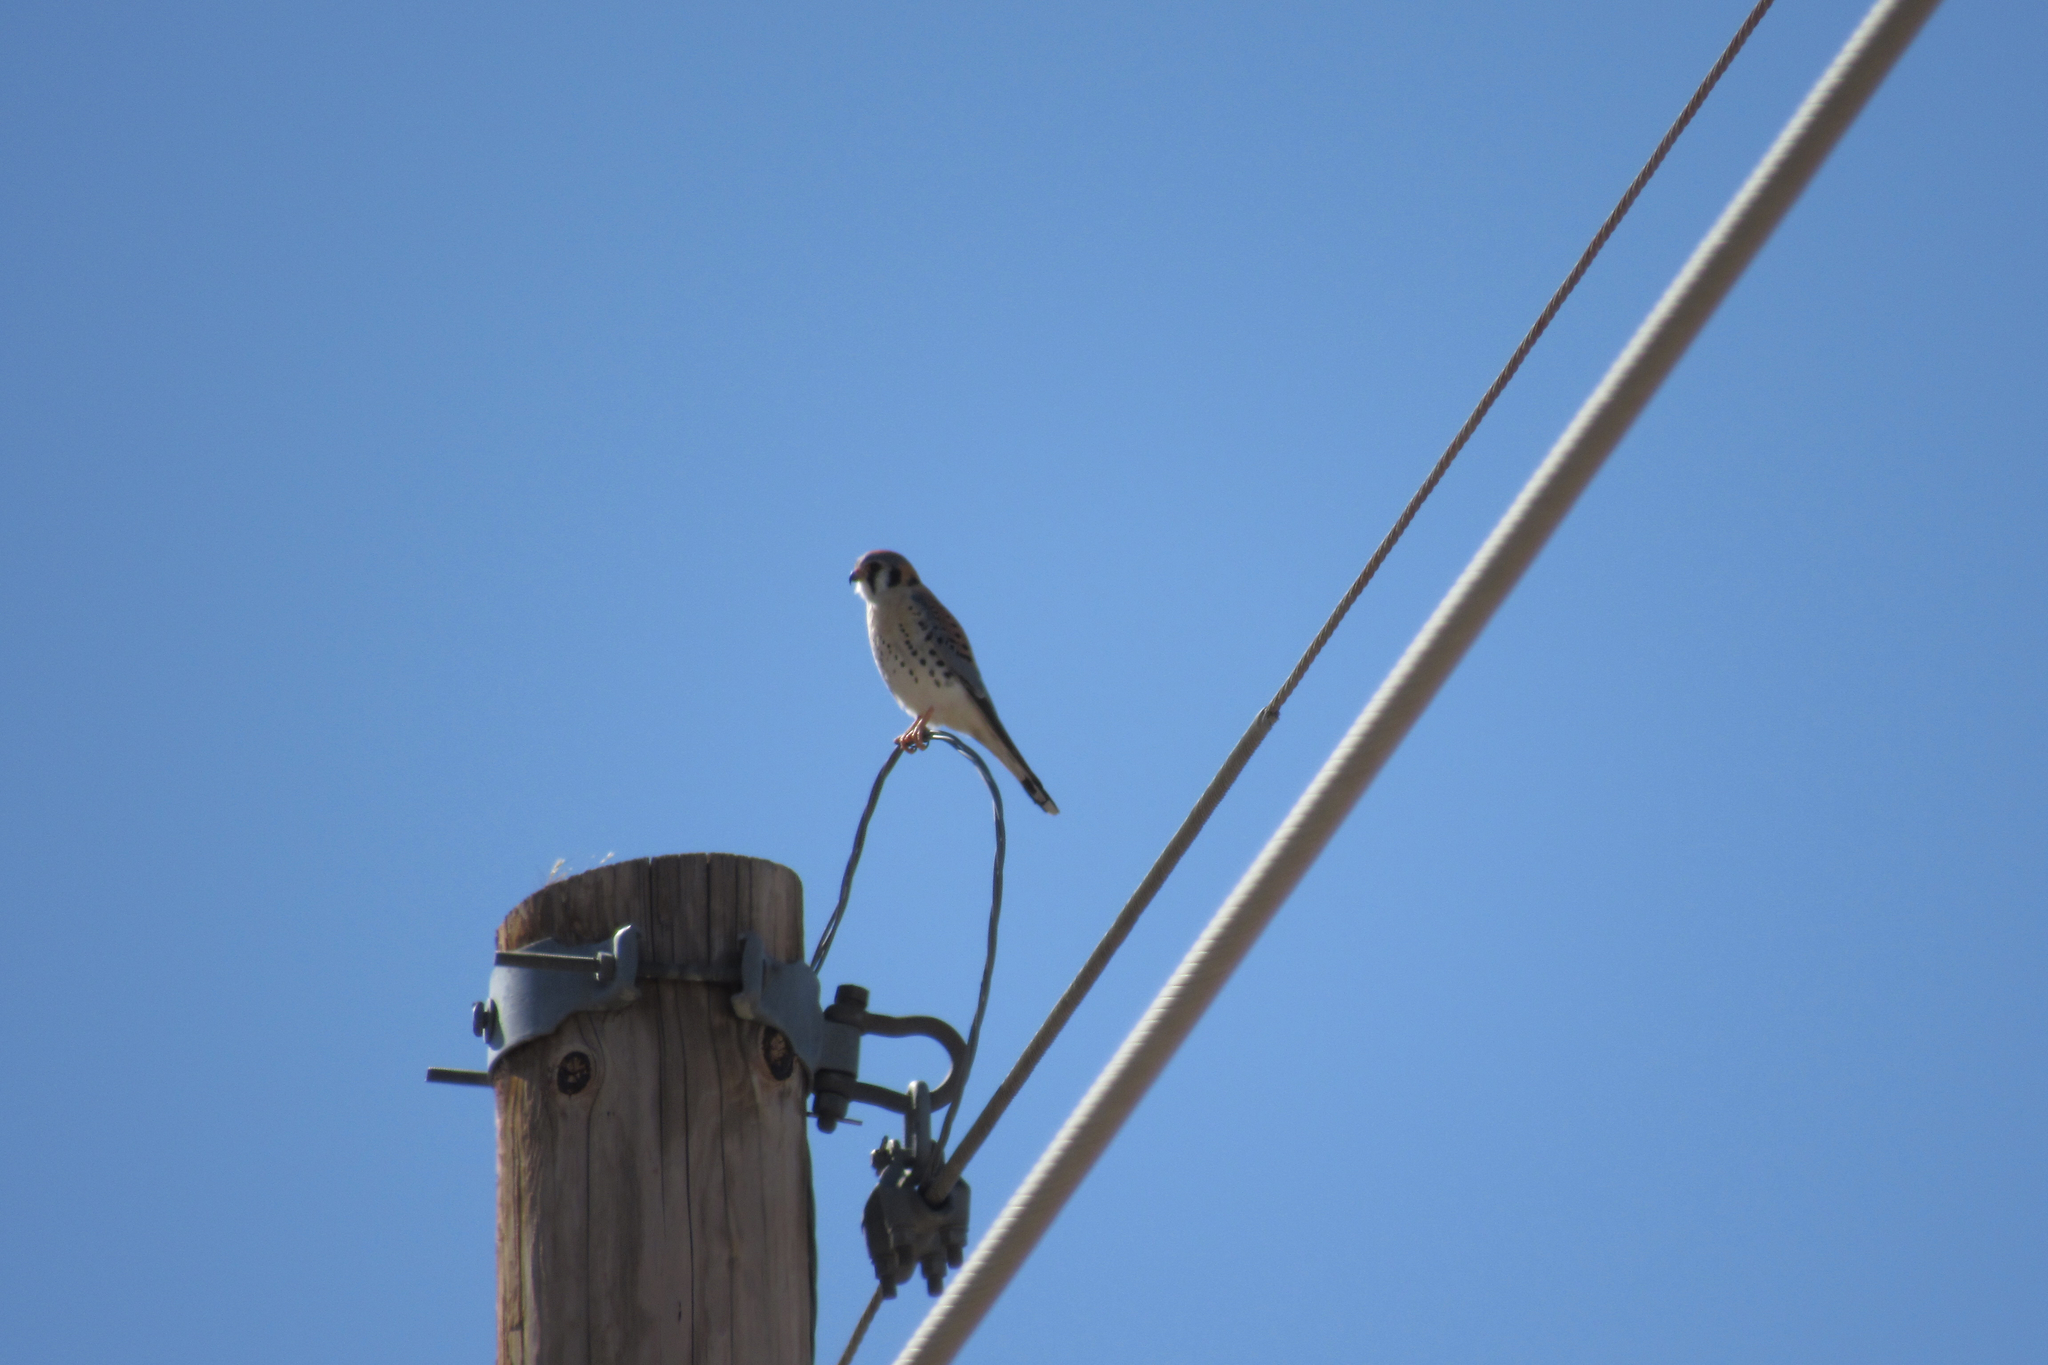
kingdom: Animalia
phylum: Chordata
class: Aves
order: Falconiformes
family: Falconidae
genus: Falco
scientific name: Falco sparverius
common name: American kestrel
